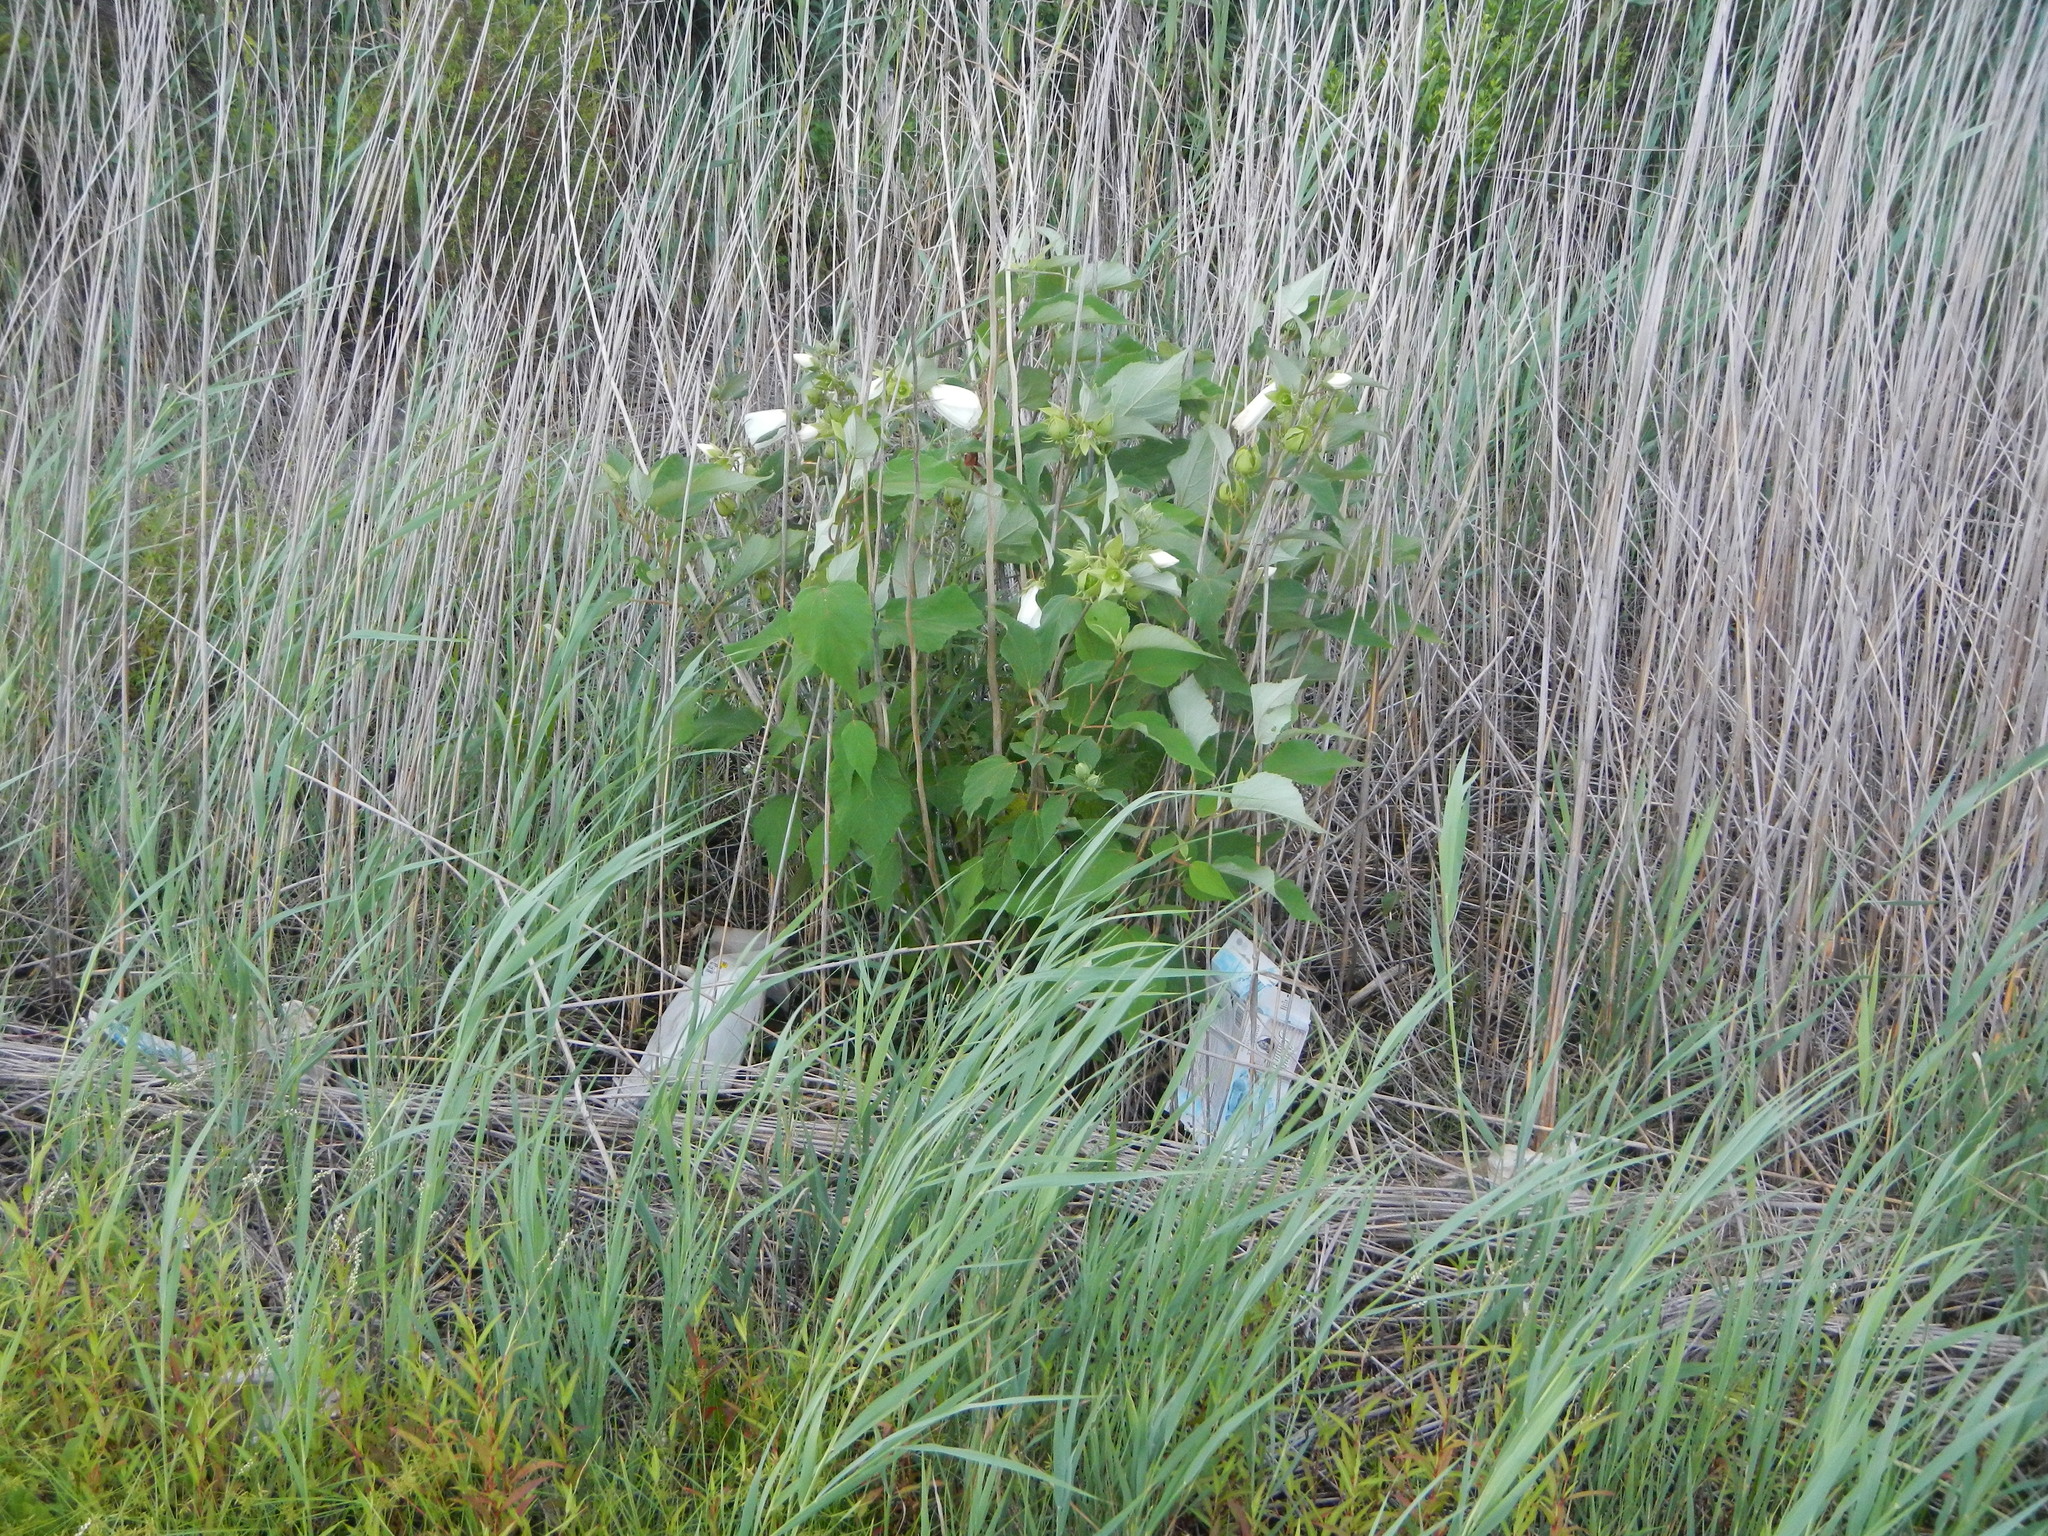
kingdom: Plantae
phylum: Tracheophyta
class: Magnoliopsida
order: Malvales
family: Malvaceae
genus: Hibiscus
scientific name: Hibiscus moscheutos
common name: Common rose-mallow
